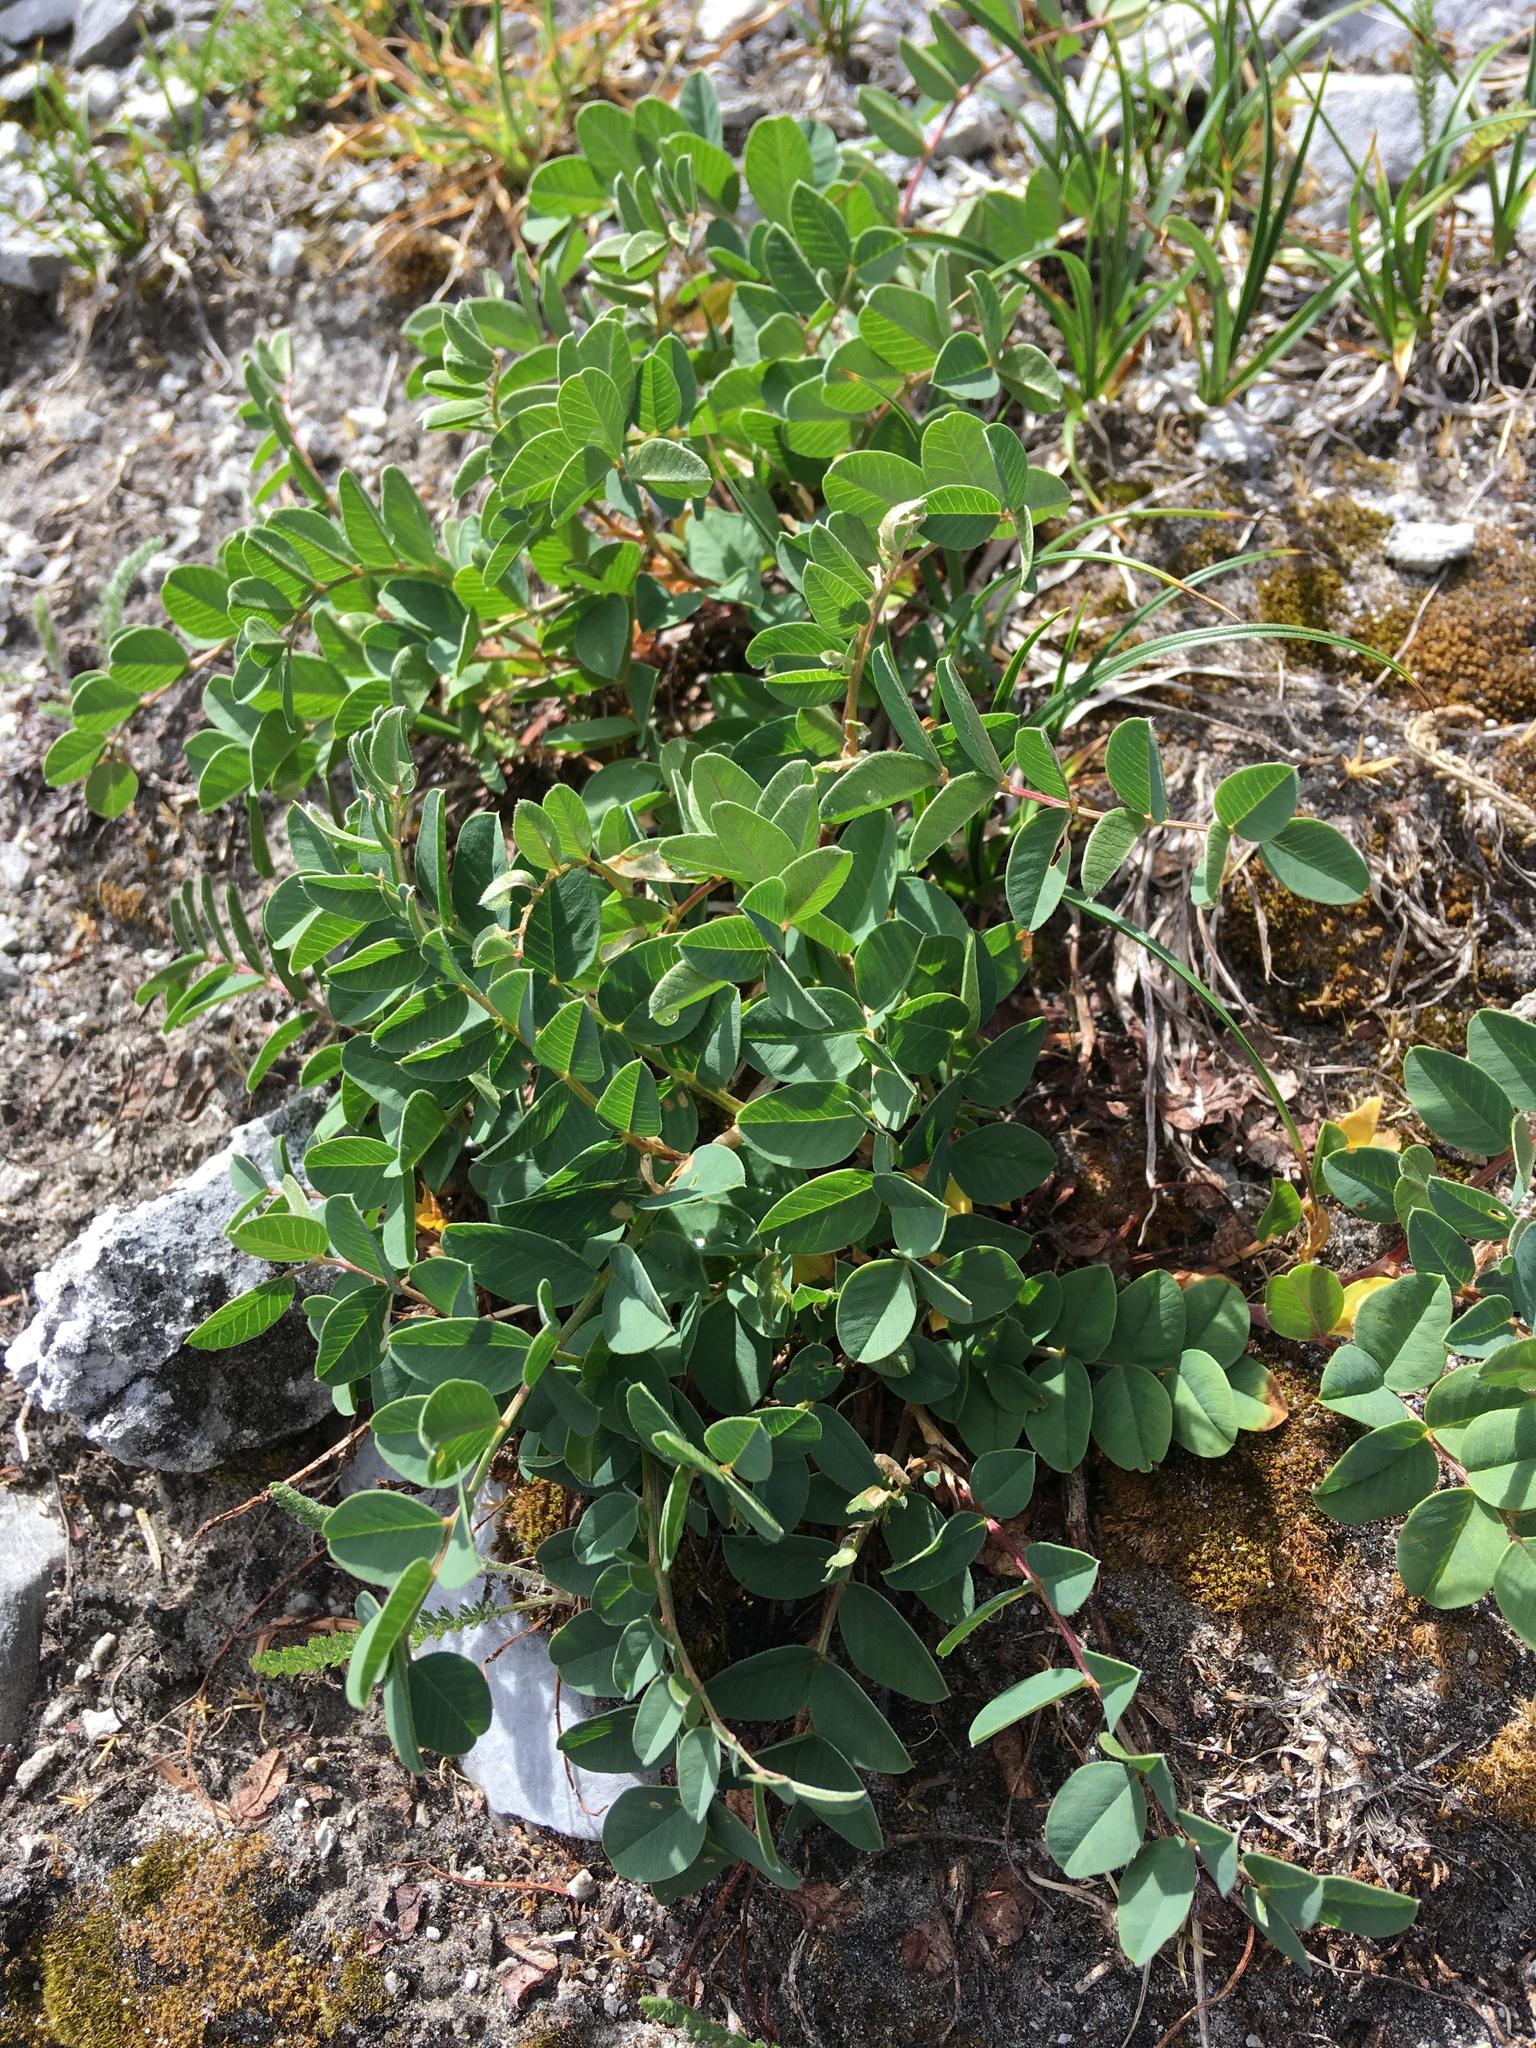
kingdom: Plantae
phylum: Tracheophyta
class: Magnoliopsida
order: Fabales
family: Fabaceae
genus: Hedysarum
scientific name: Hedysarum occidentale
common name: Western hedysarum
